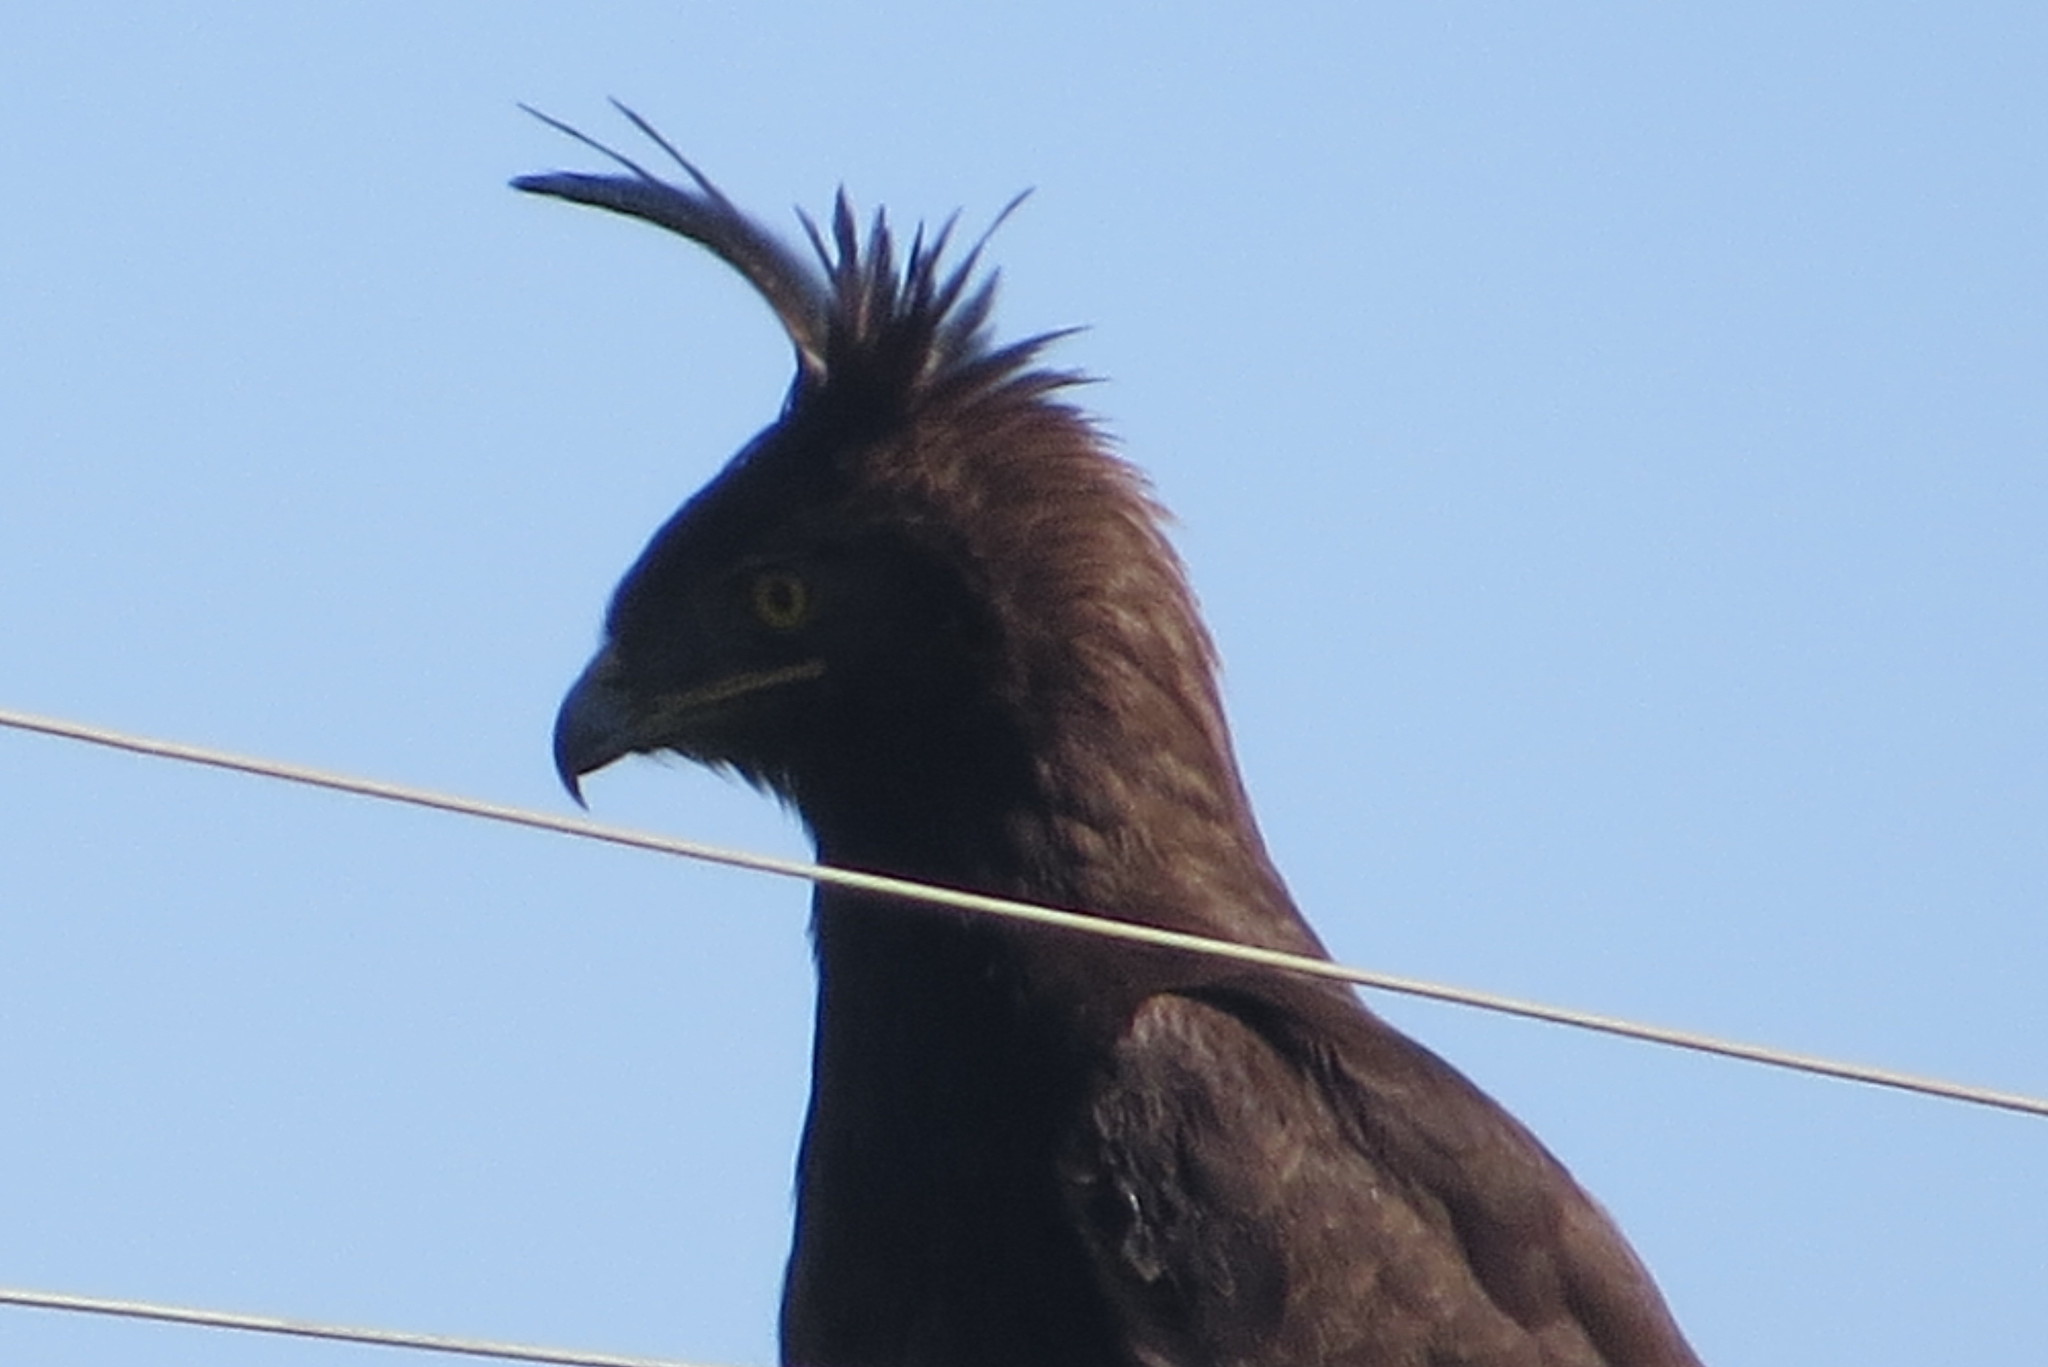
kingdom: Animalia
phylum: Chordata
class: Aves
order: Accipitriformes
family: Accipitridae
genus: Lophaetus
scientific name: Lophaetus occipitalis
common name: Long-crested eagle
